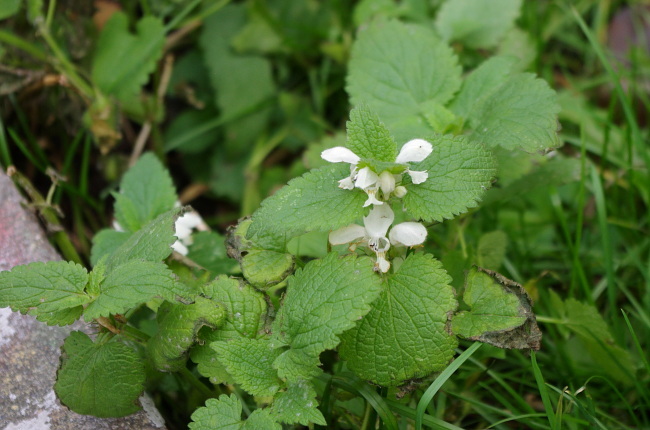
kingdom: Plantae
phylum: Tracheophyta
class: Magnoliopsida
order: Lamiales
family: Lamiaceae
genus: Lamium
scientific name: Lamium album
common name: White dead-nettle
